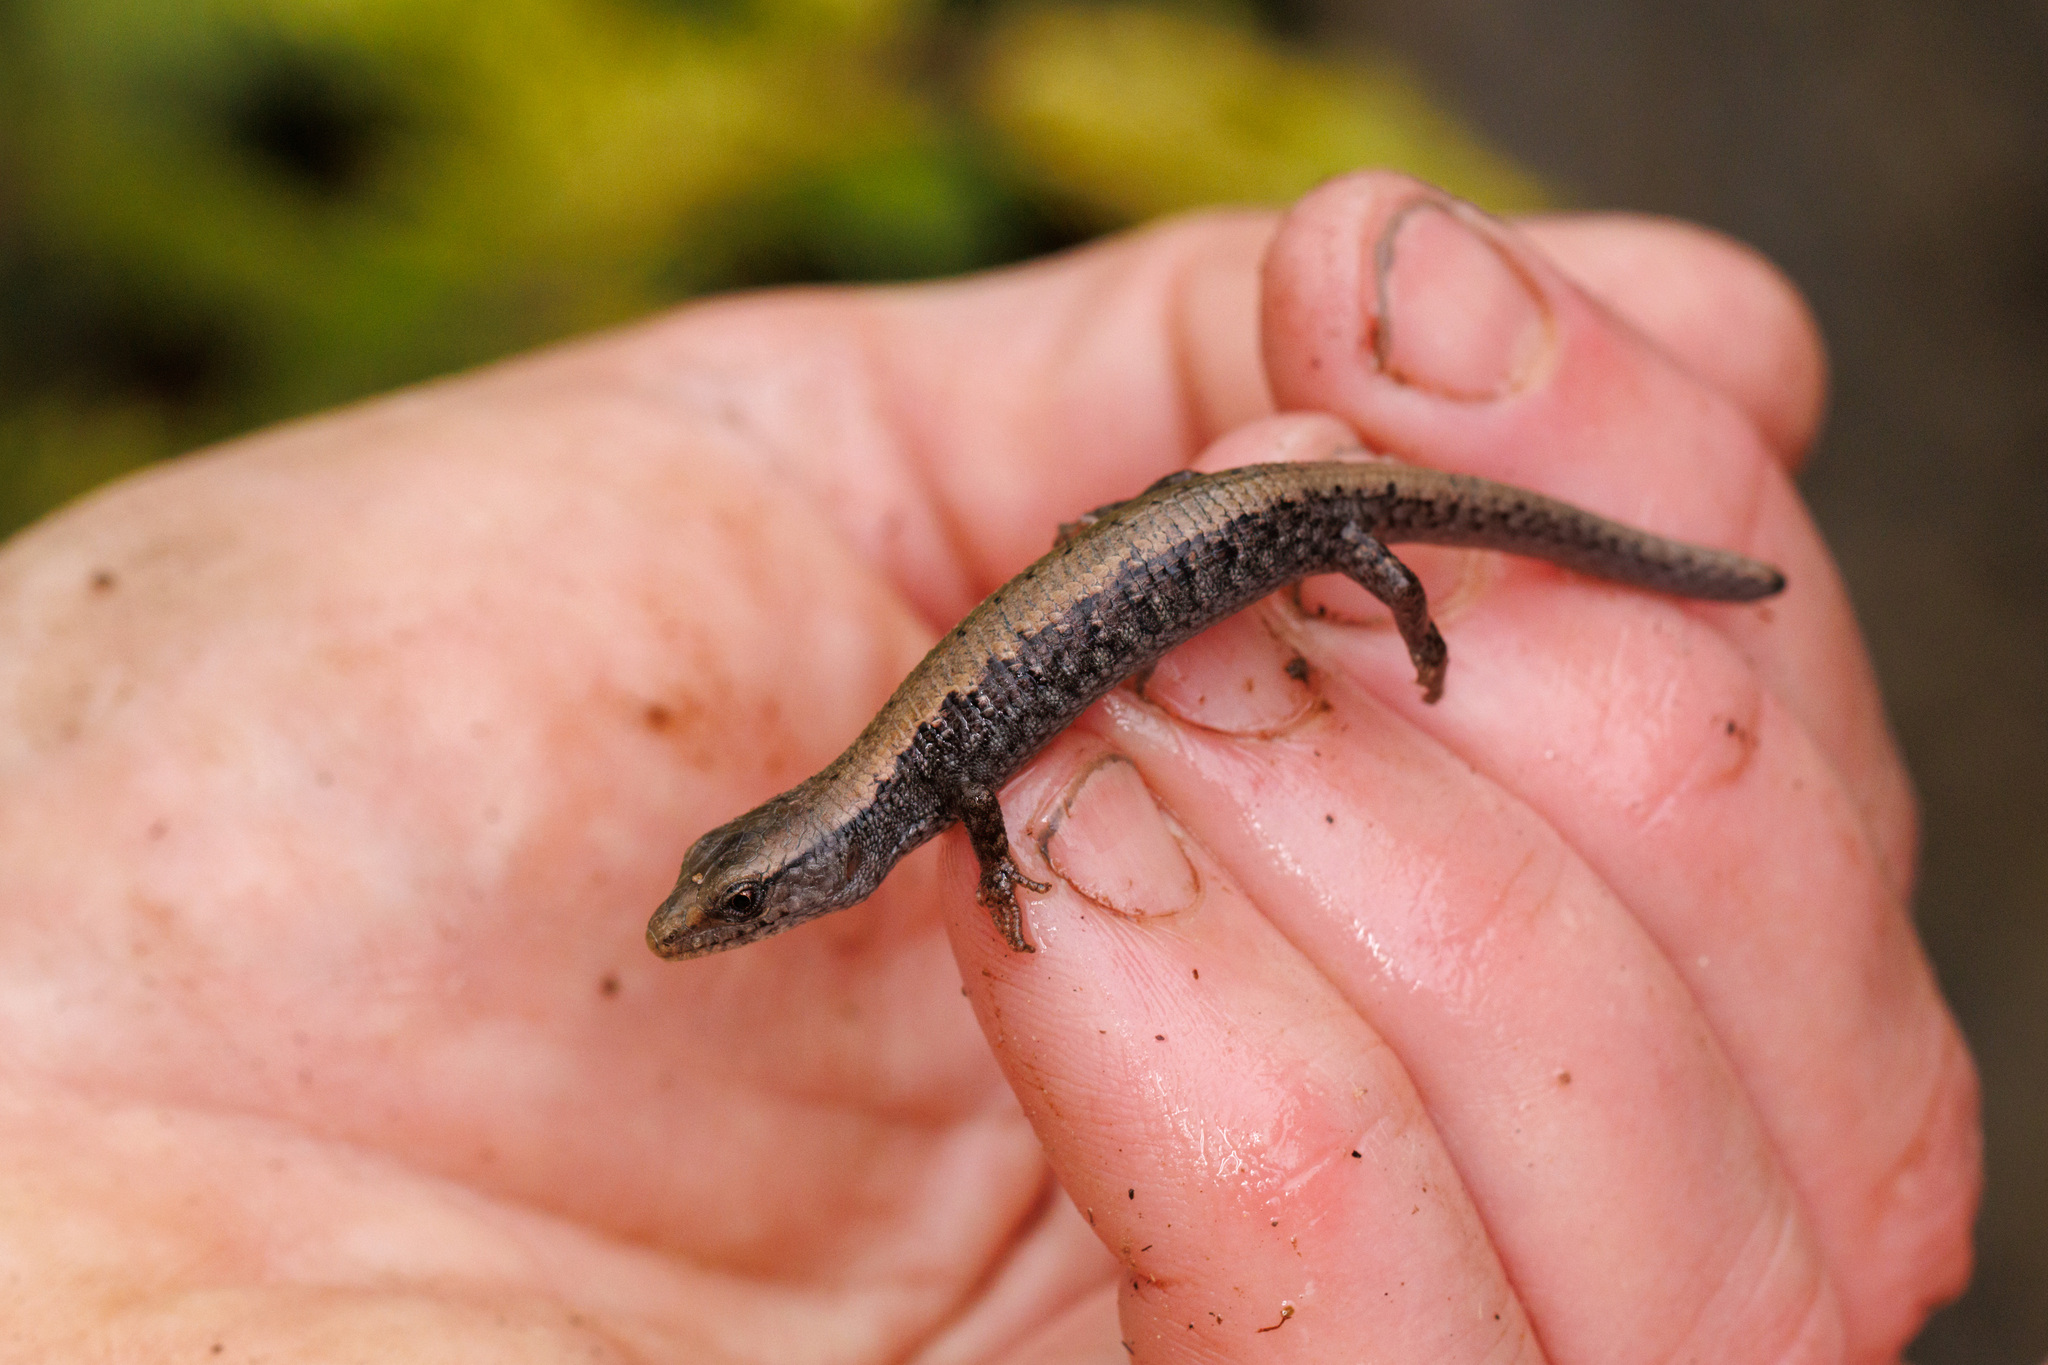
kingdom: Animalia
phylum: Chordata
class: Squamata
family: Anguidae
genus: Elgaria
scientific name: Elgaria coerulea
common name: Northern alligator lizard
